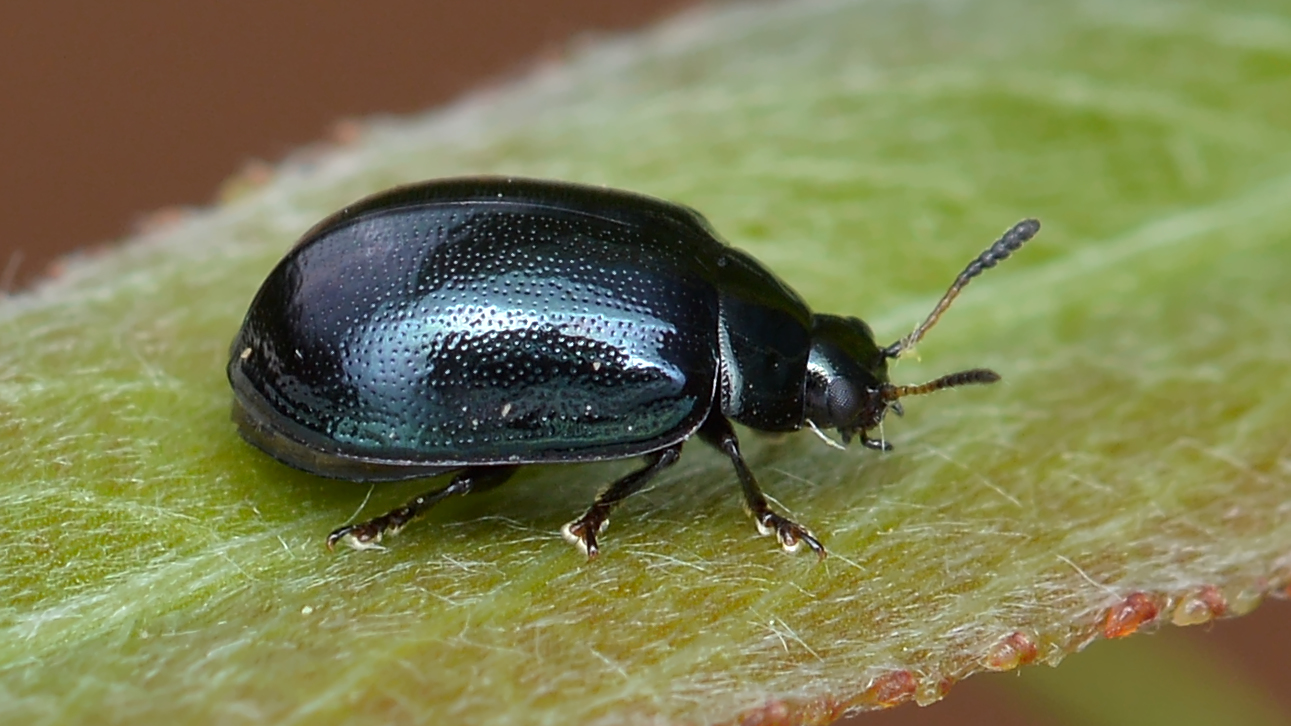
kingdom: Animalia
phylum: Arthropoda
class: Insecta
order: Coleoptera
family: Chrysomelidae
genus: Plagiodera
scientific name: Plagiodera versicolora
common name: Imported willow leaf beetle
